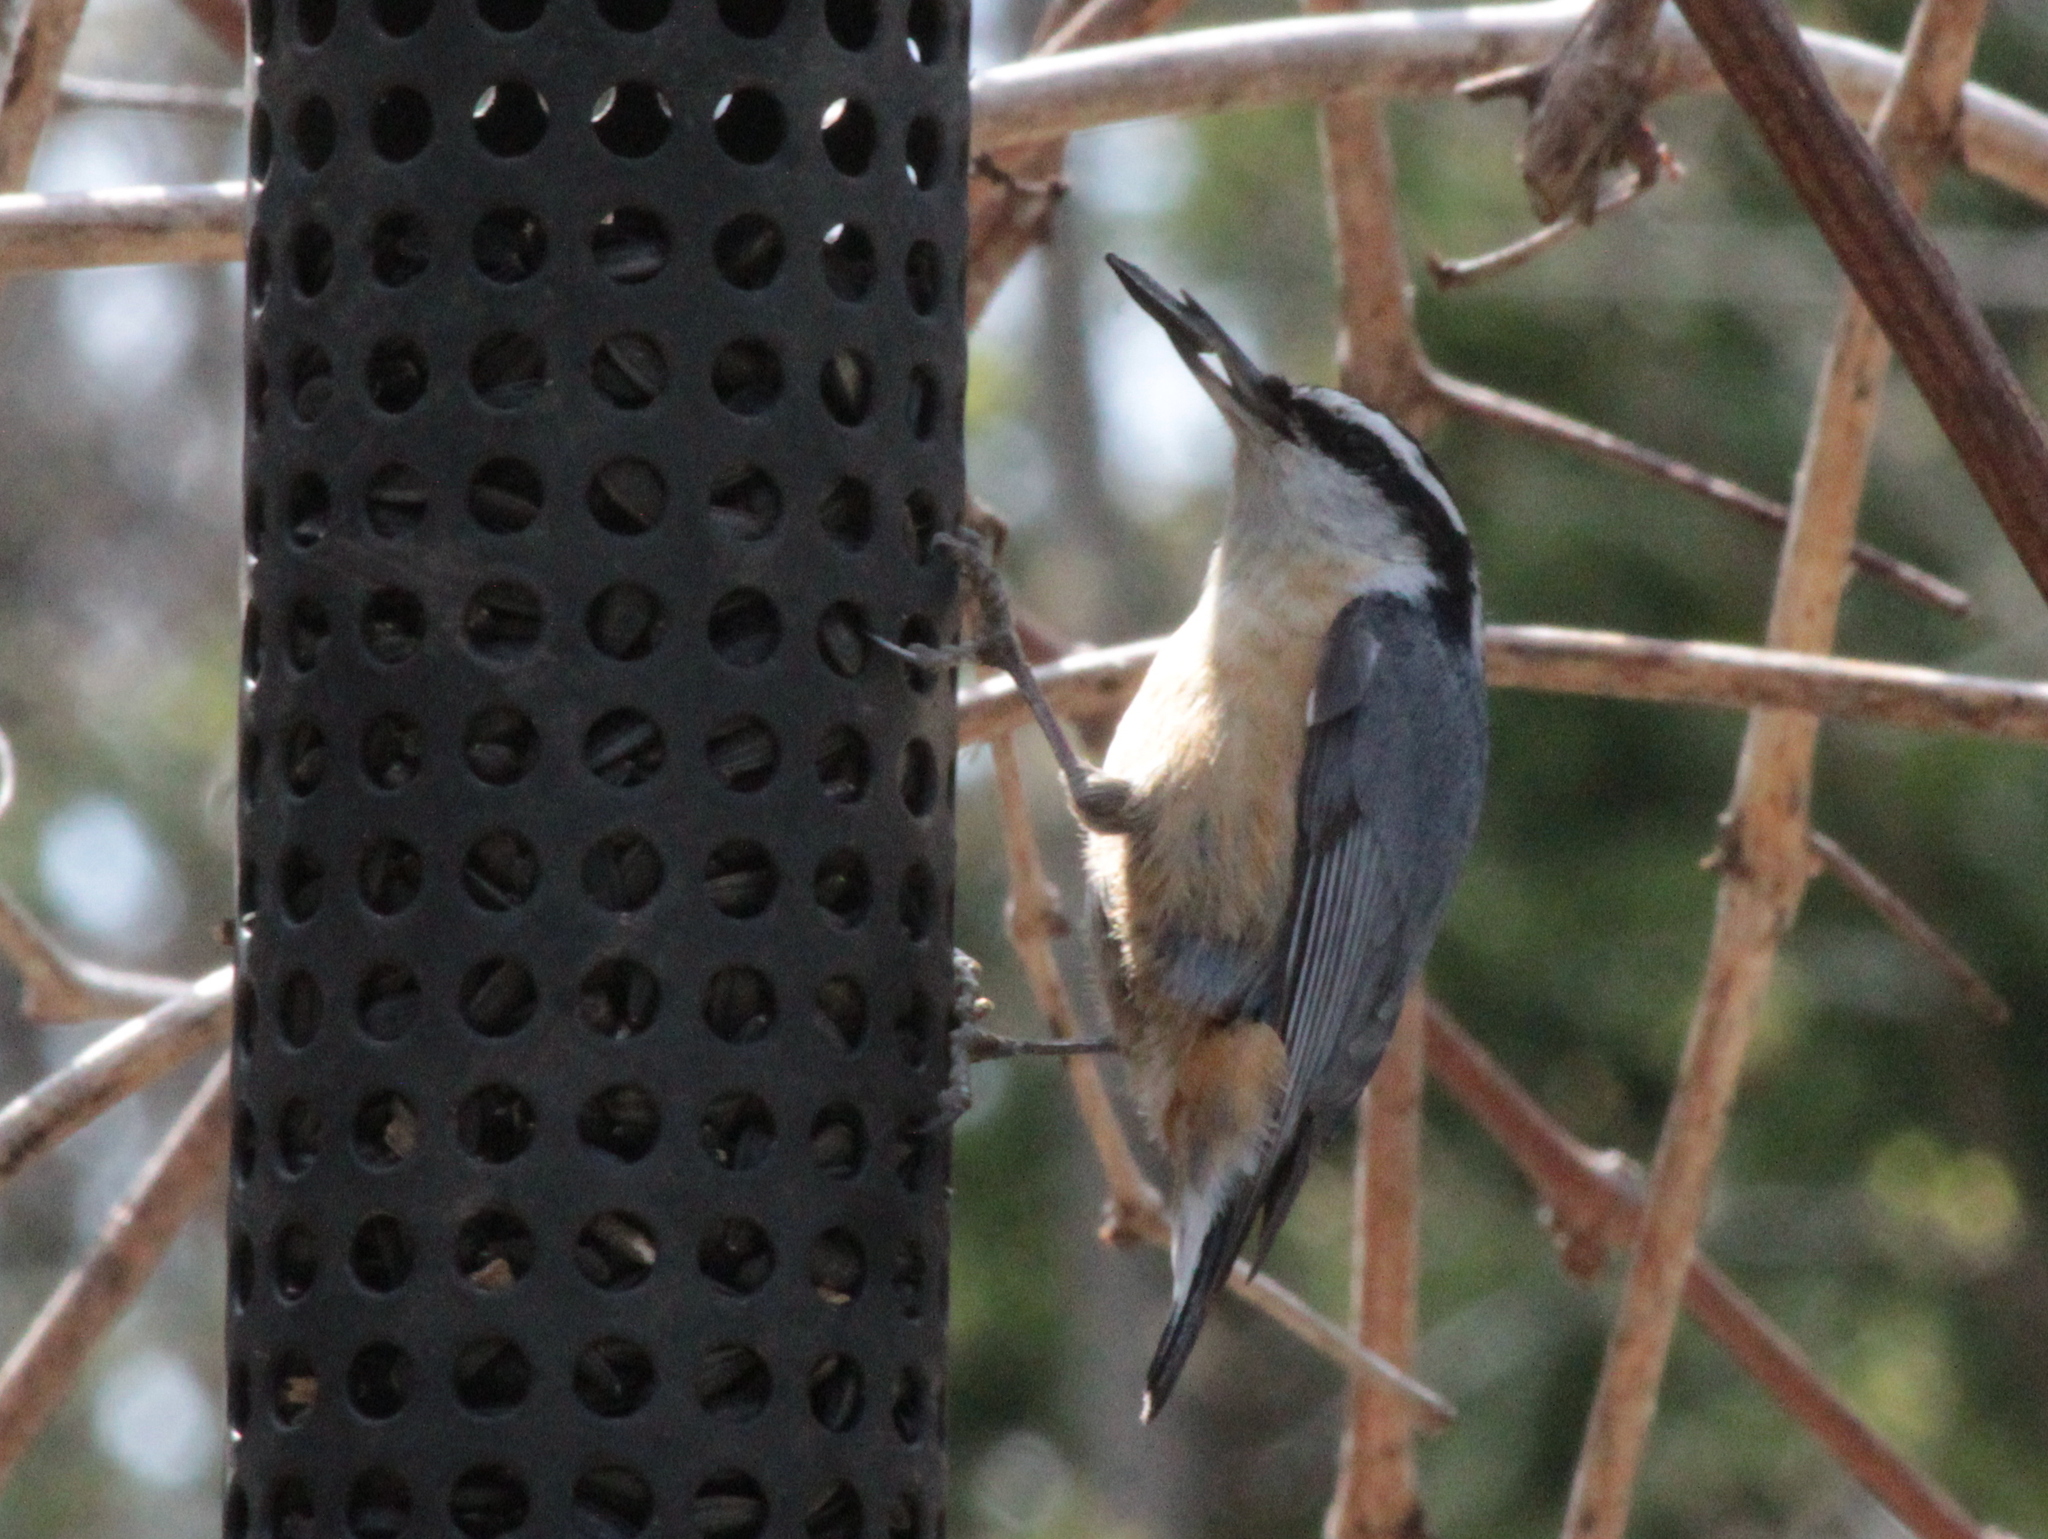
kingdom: Animalia
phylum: Chordata
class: Aves
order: Passeriformes
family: Sittidae
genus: Sitta
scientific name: Sitta canadensis
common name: Red-breasted nuthatch
